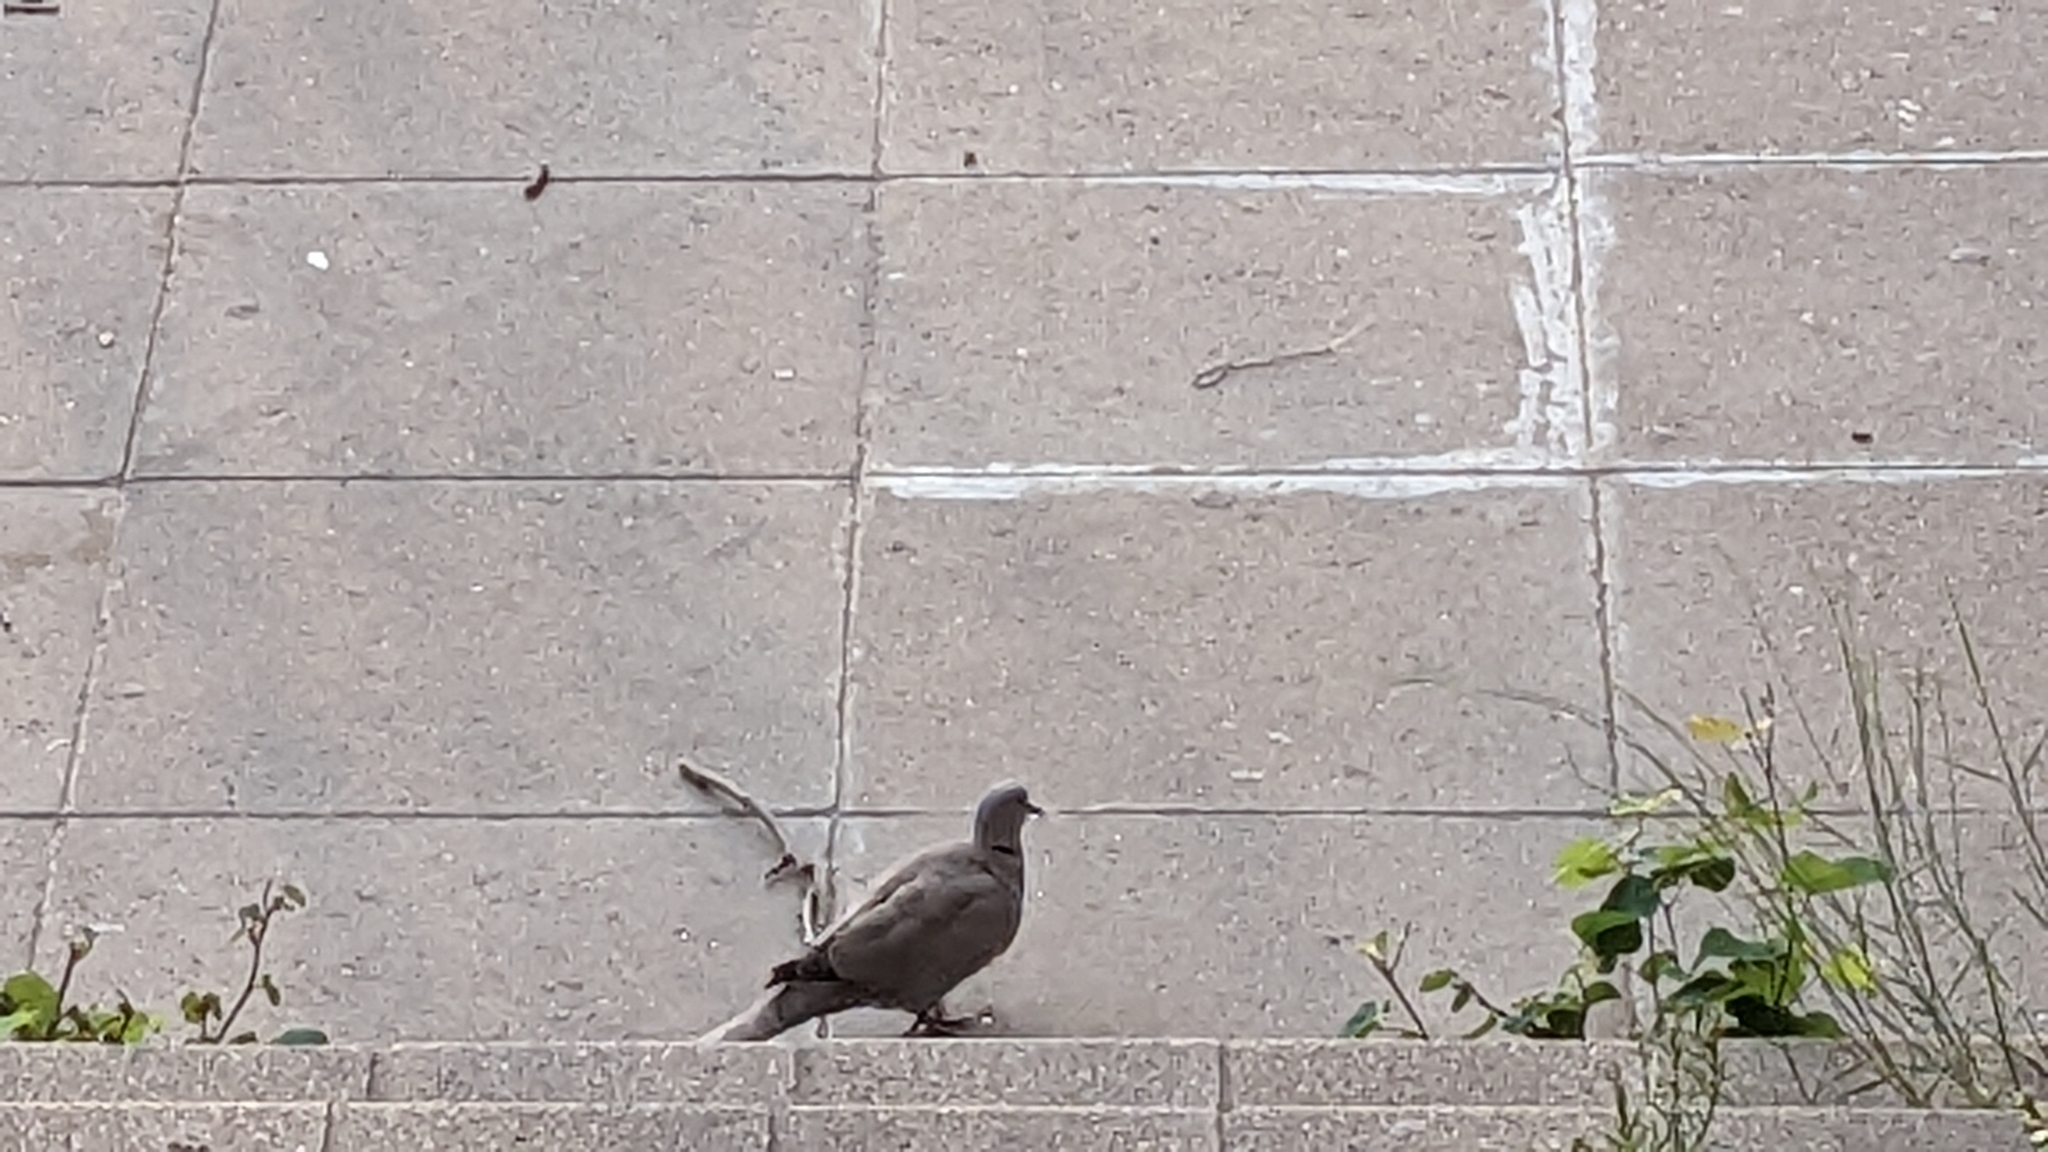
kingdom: Animalia
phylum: Chordata
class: Aves
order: Columbiformes
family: Columbidae
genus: Streptopelia
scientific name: Streptopelia decaocto
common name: Eurasian collared dove
